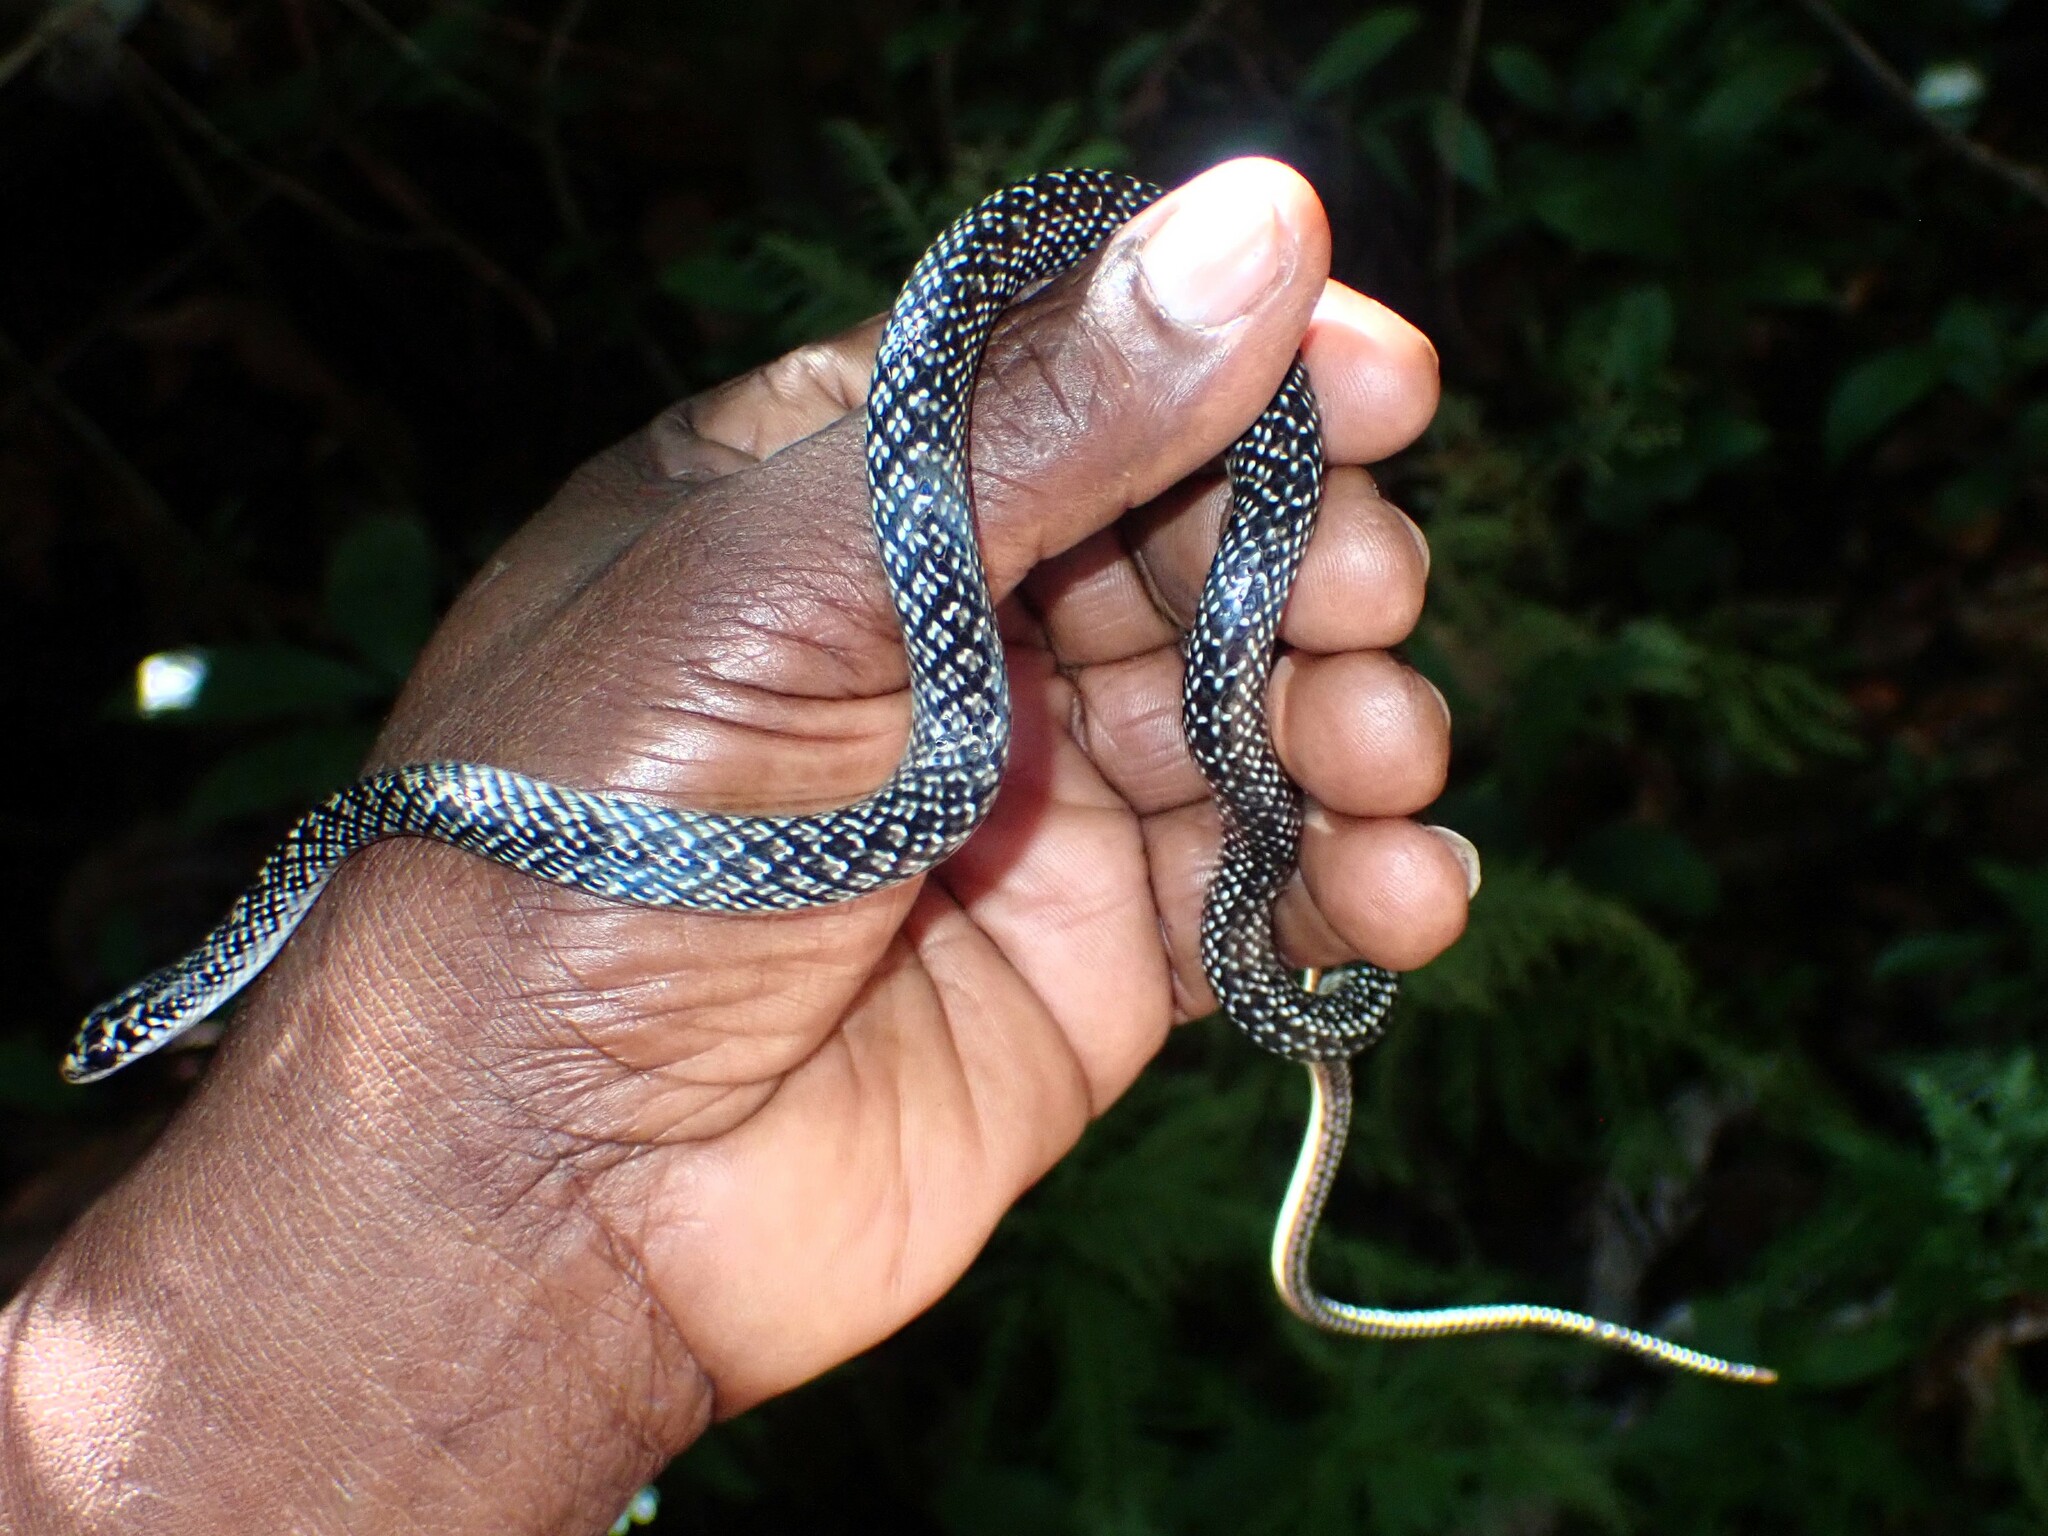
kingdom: Animalia
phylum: Chordata
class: Squamata
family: Colubridae
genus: Erythrolamprus
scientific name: Erythrolamprus juliae
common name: Julia's ground snake
